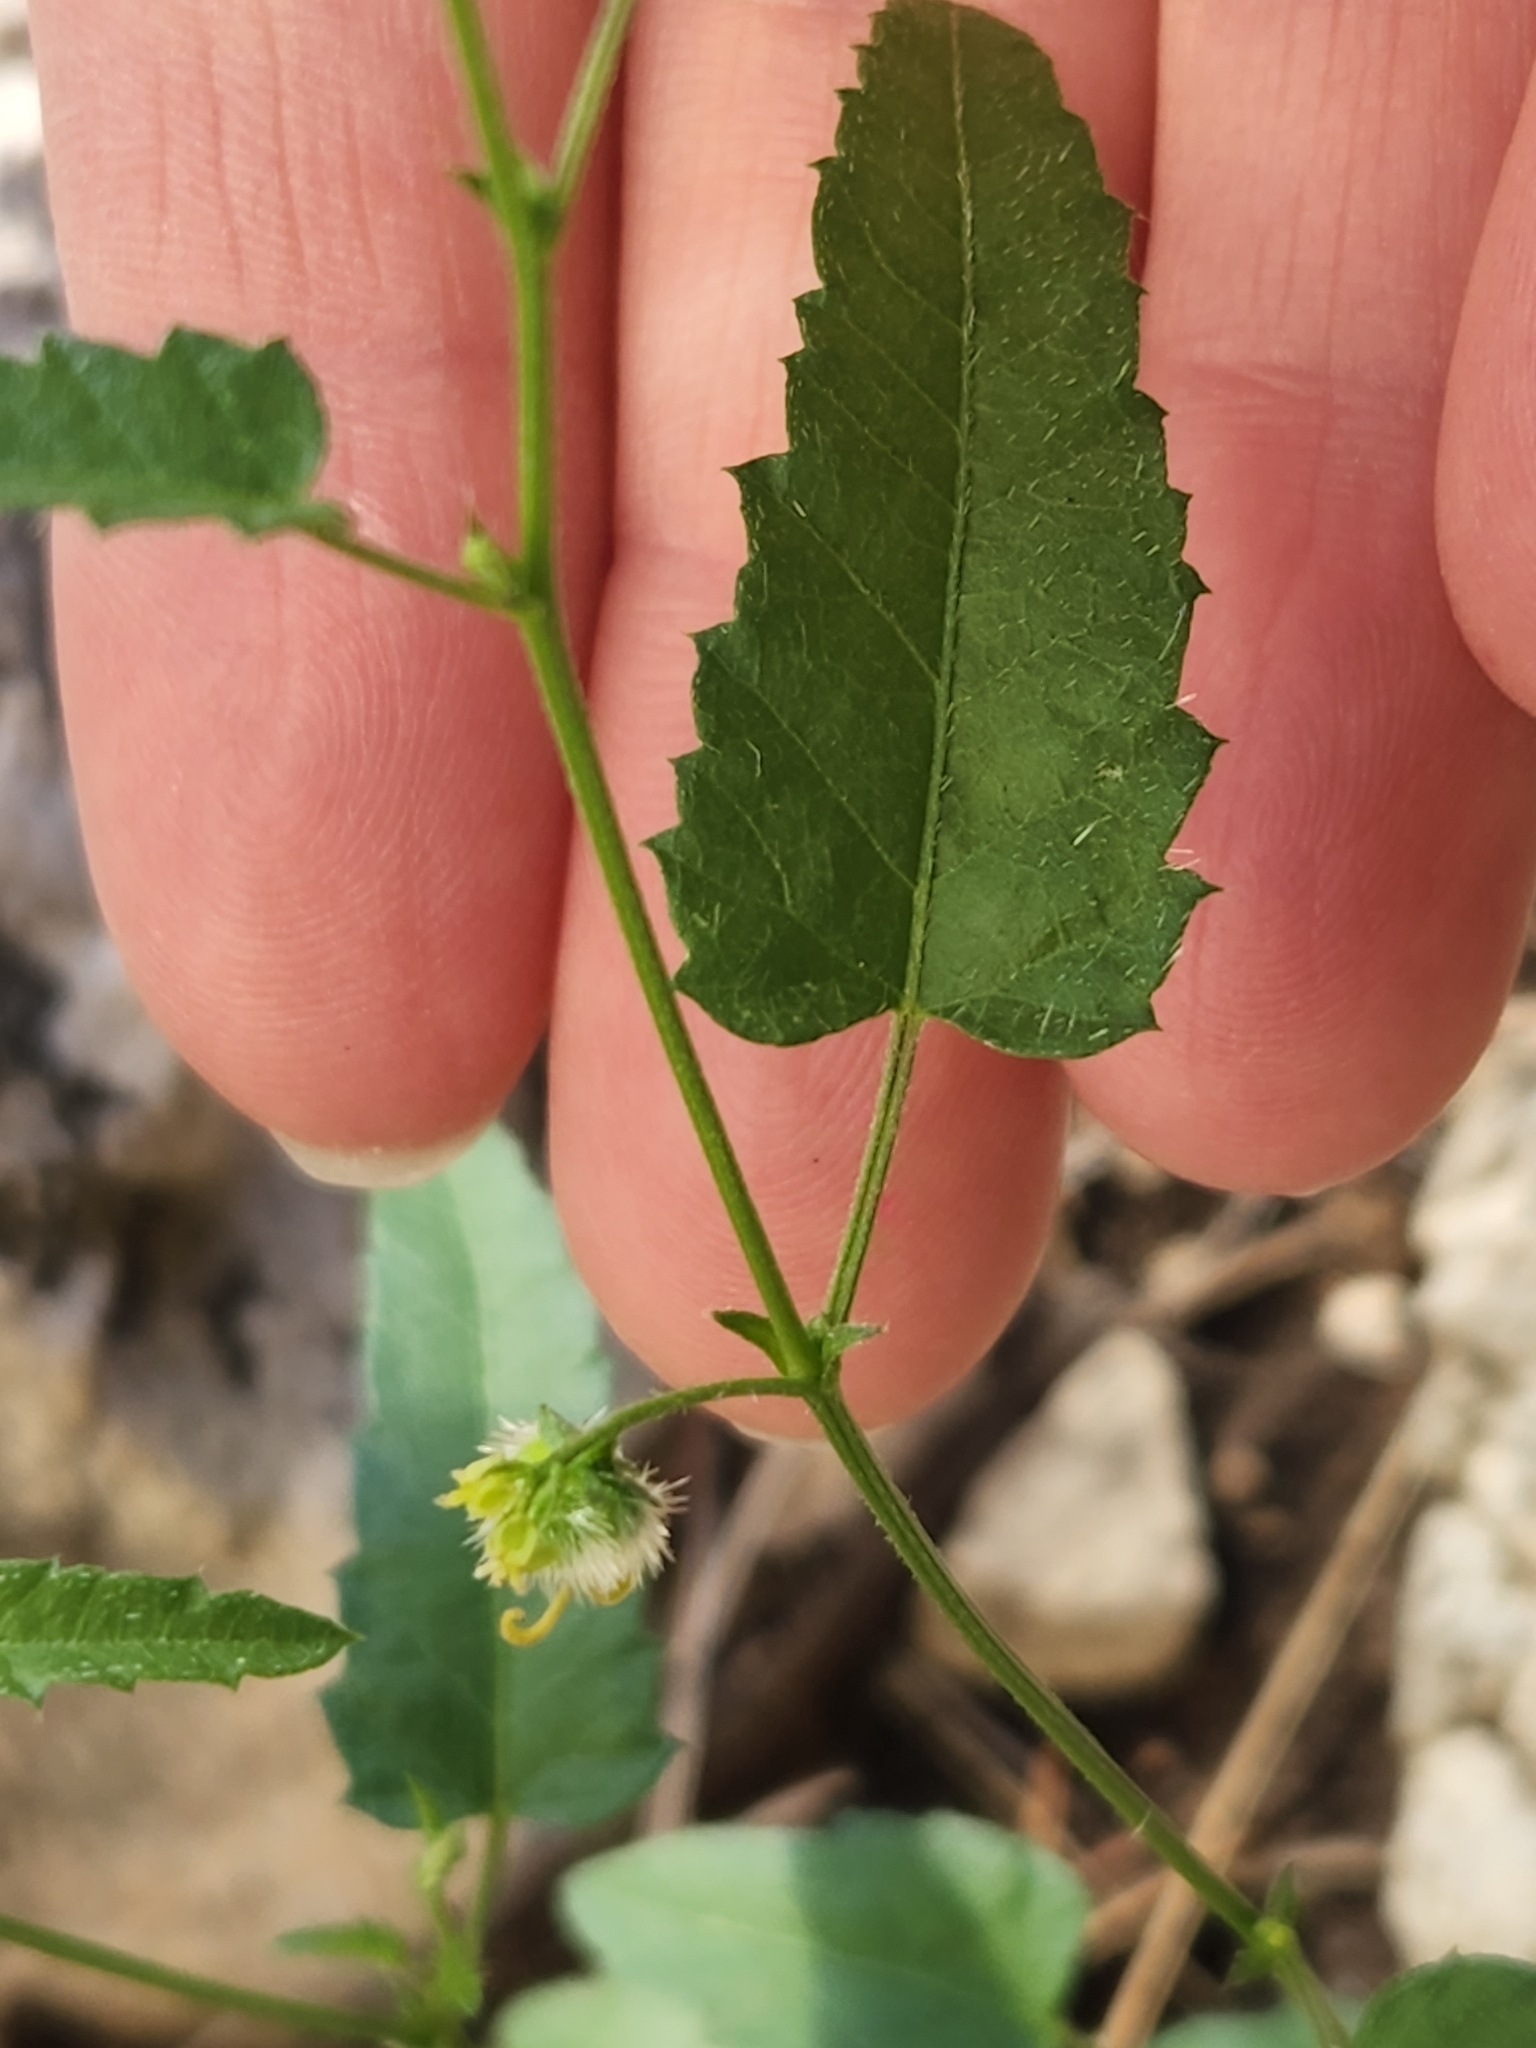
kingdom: Plantae
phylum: Tracheophyta
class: Magnoliopsida
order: Malpighiales
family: Euphorbiaceae
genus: Tragia
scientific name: Tragia ramosa
